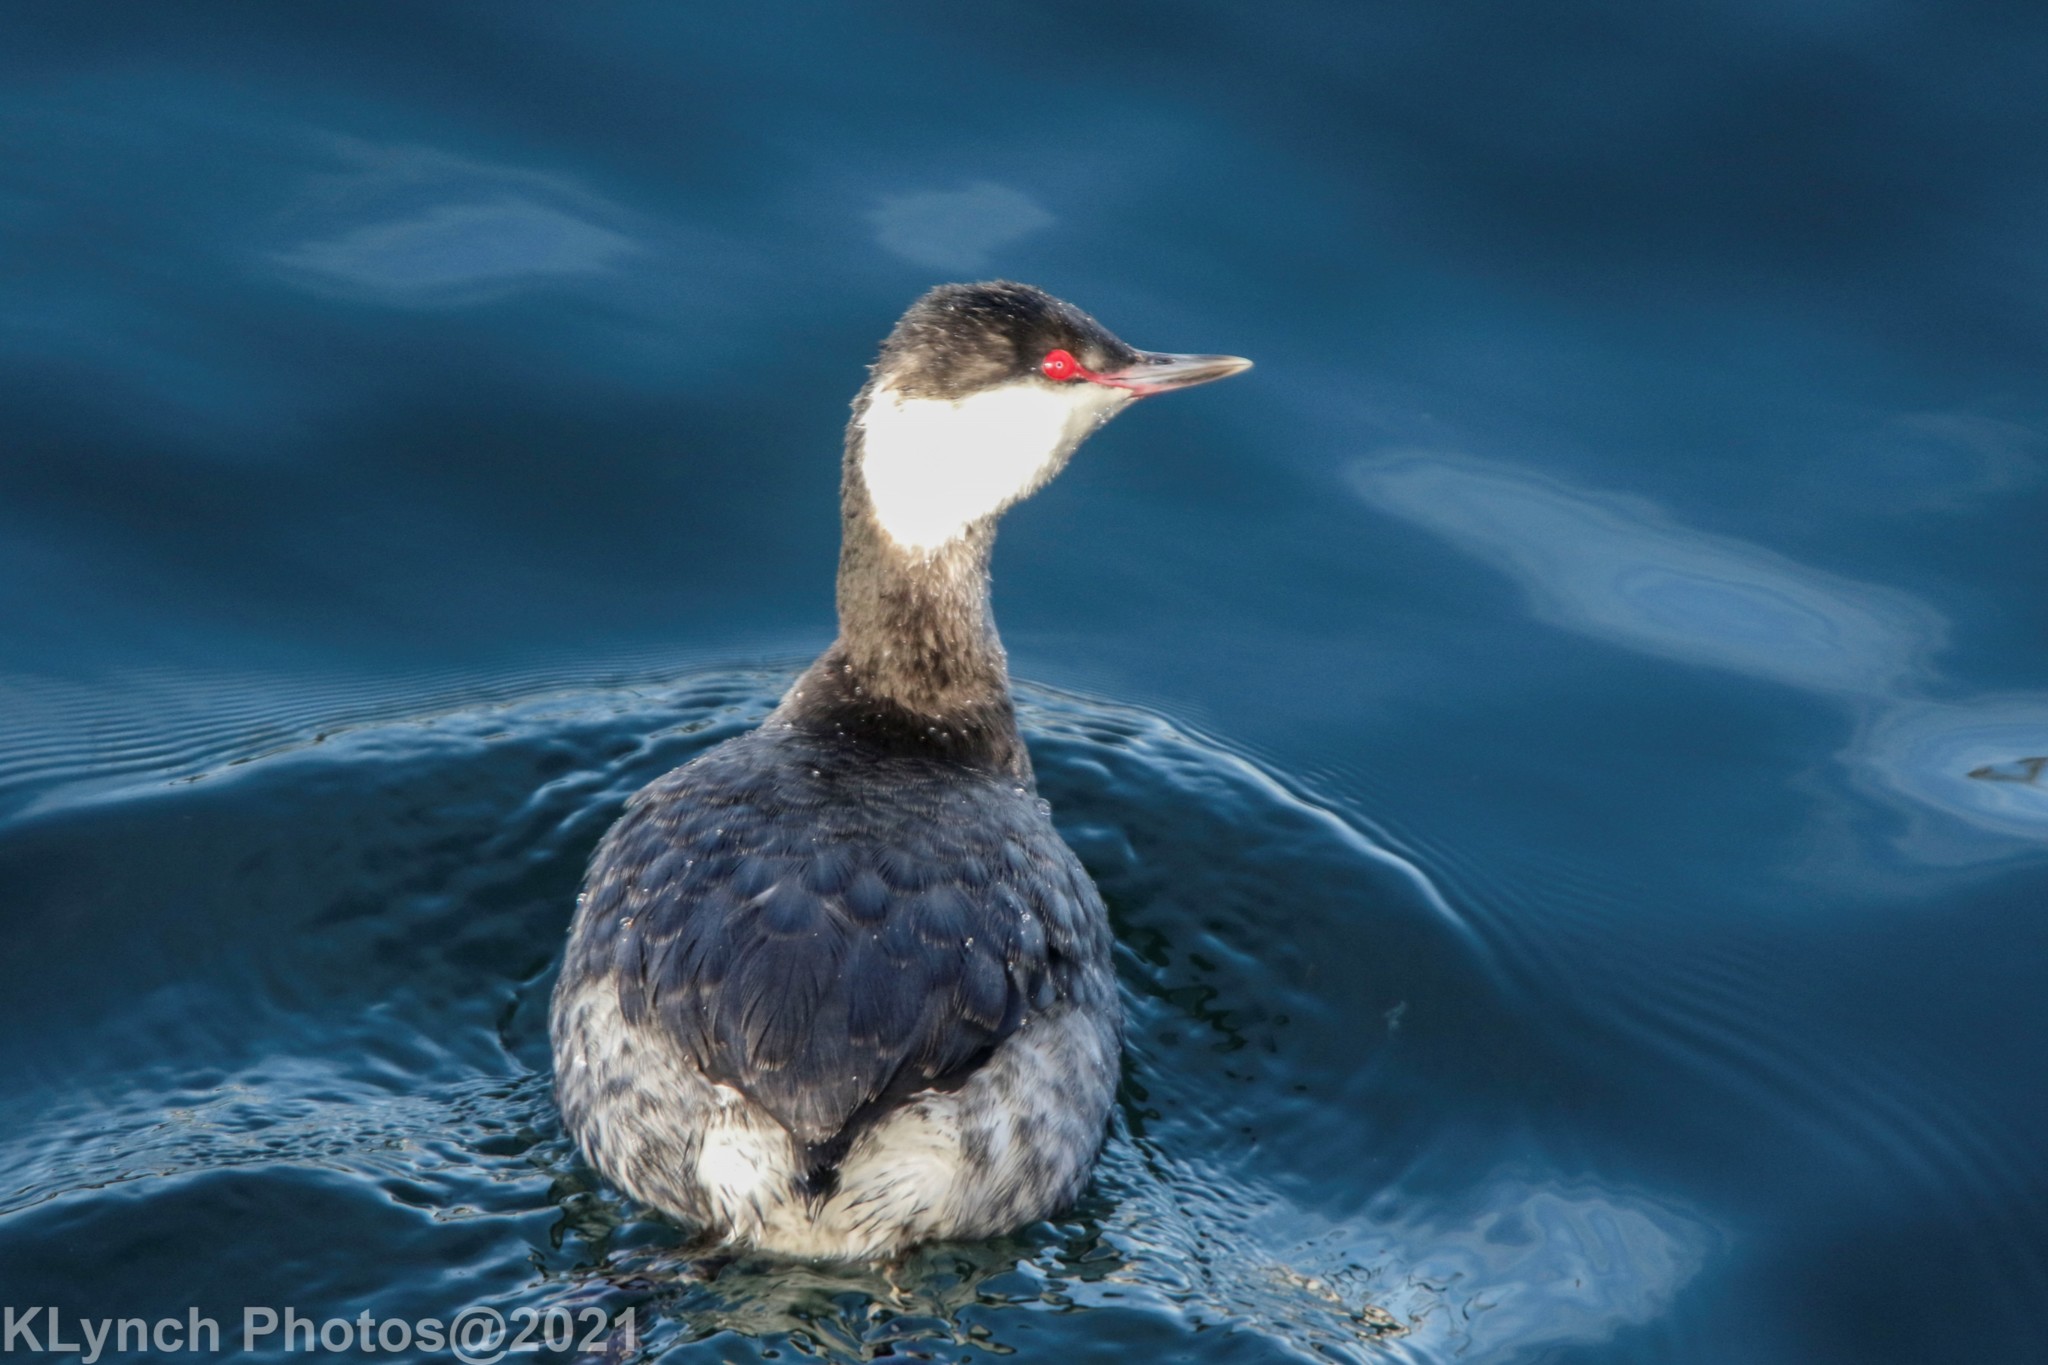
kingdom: Animalia
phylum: Chordata
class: Aves
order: Podicipediformes
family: Podicipedidae
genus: Podiceps
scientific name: Podiceps auritus
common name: Horned grebe
